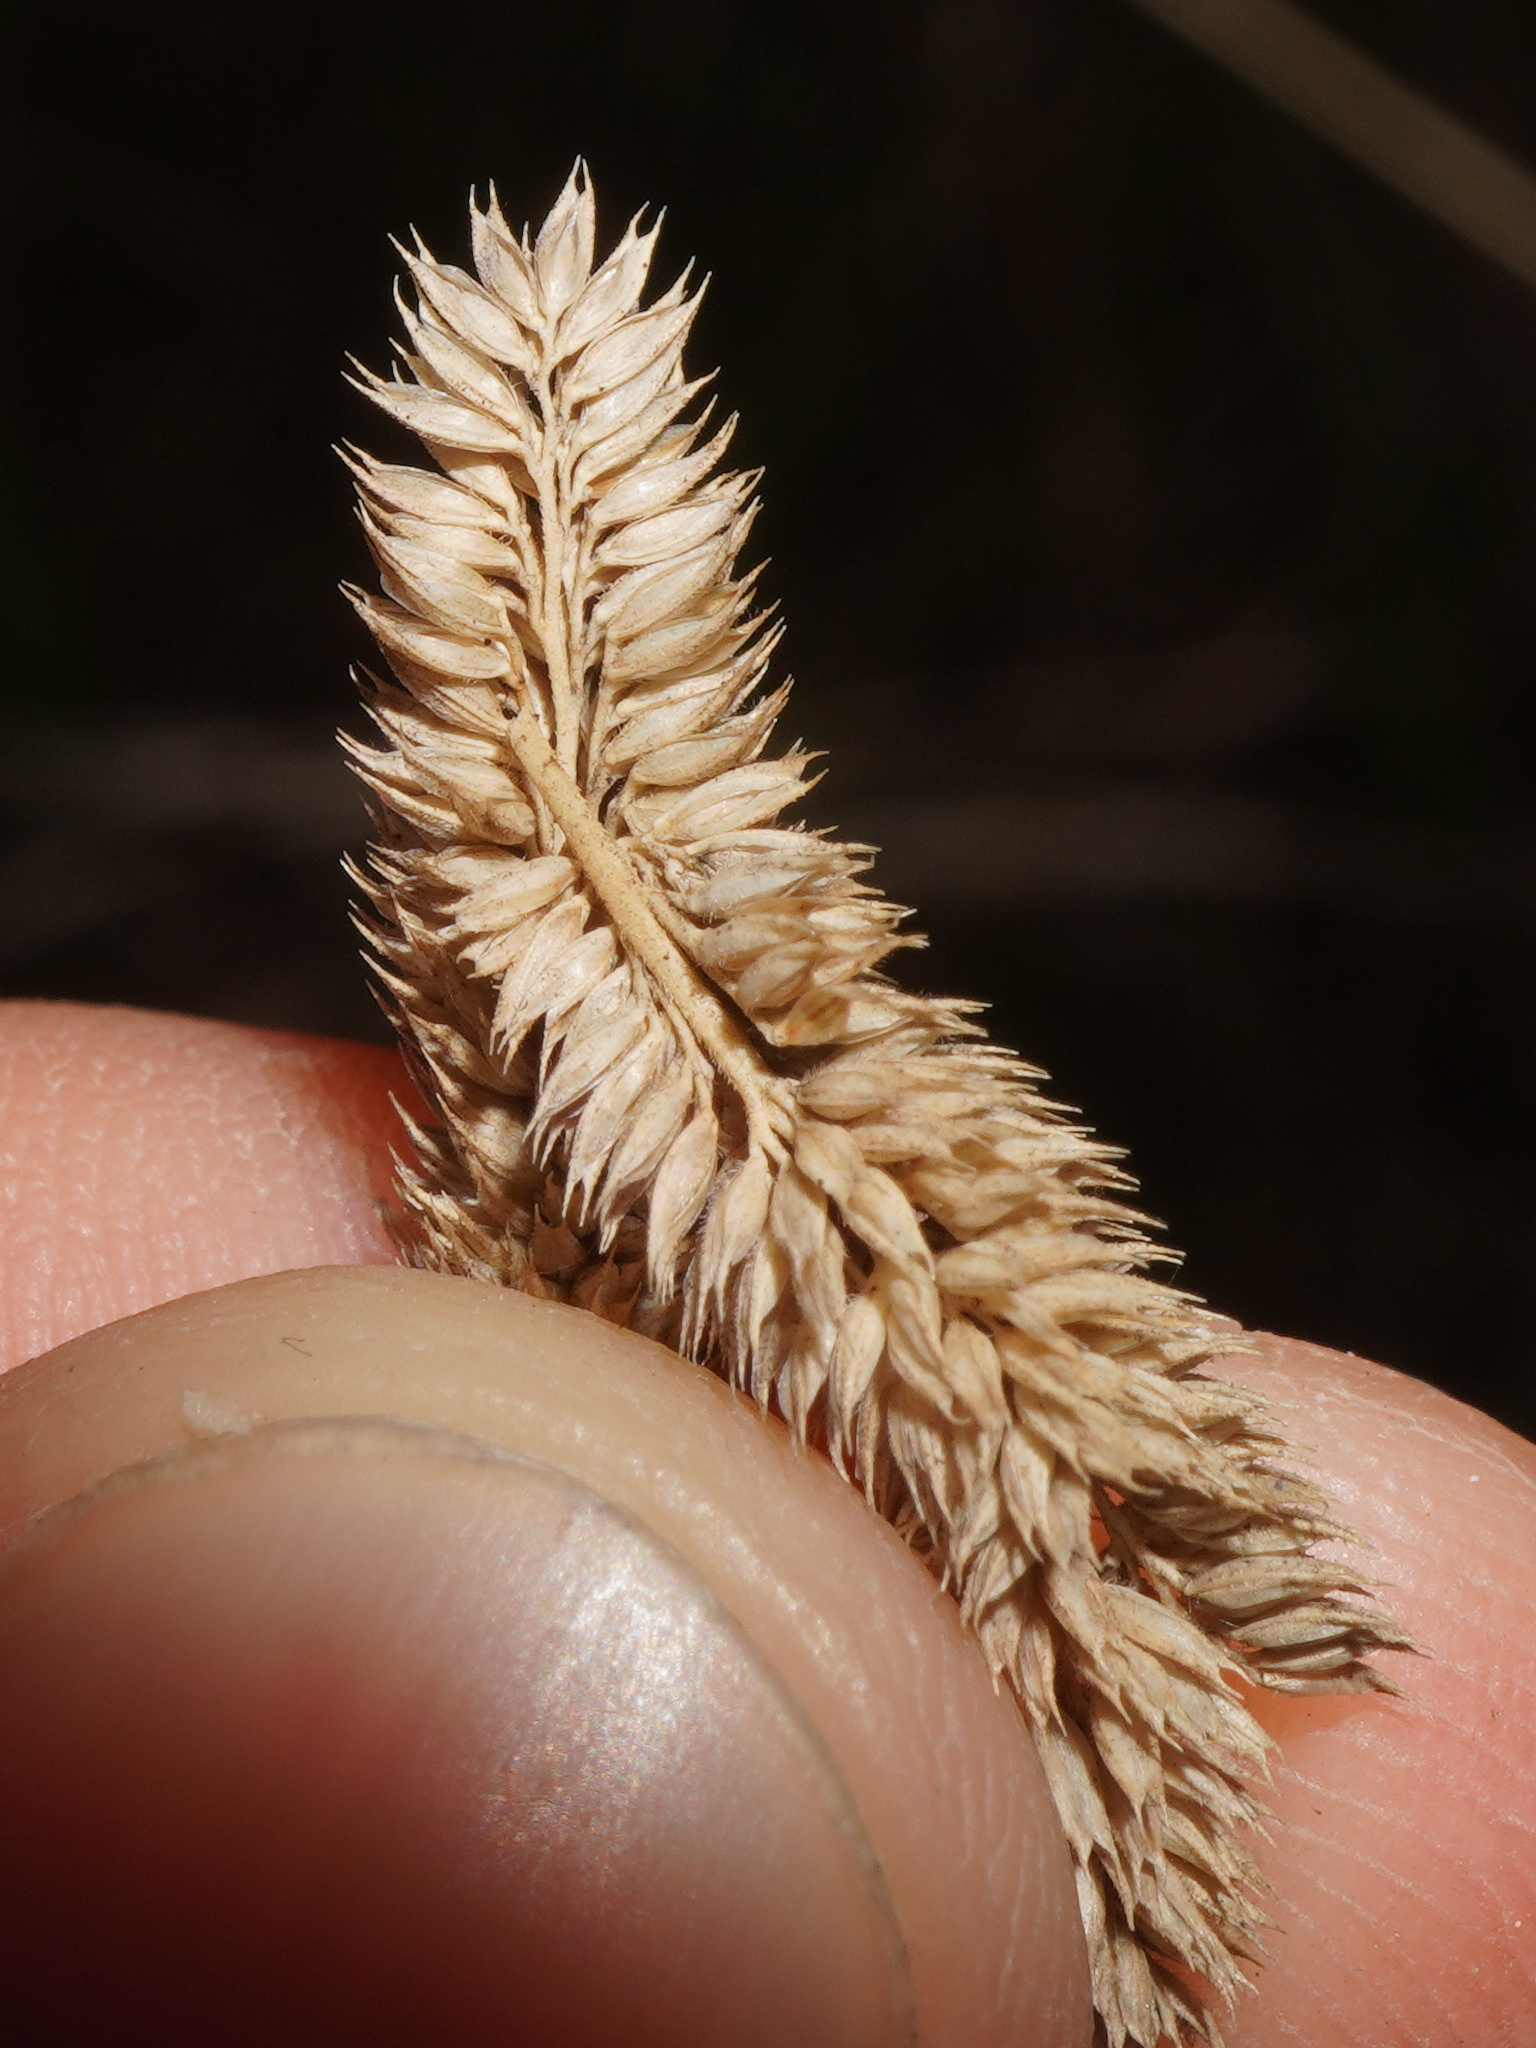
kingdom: Plantae
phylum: Tracheophyta
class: Liliopsida
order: Poales
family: Poaceae
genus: Phleum
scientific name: Phleum phleoides
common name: Purple-stem cat's-tail
